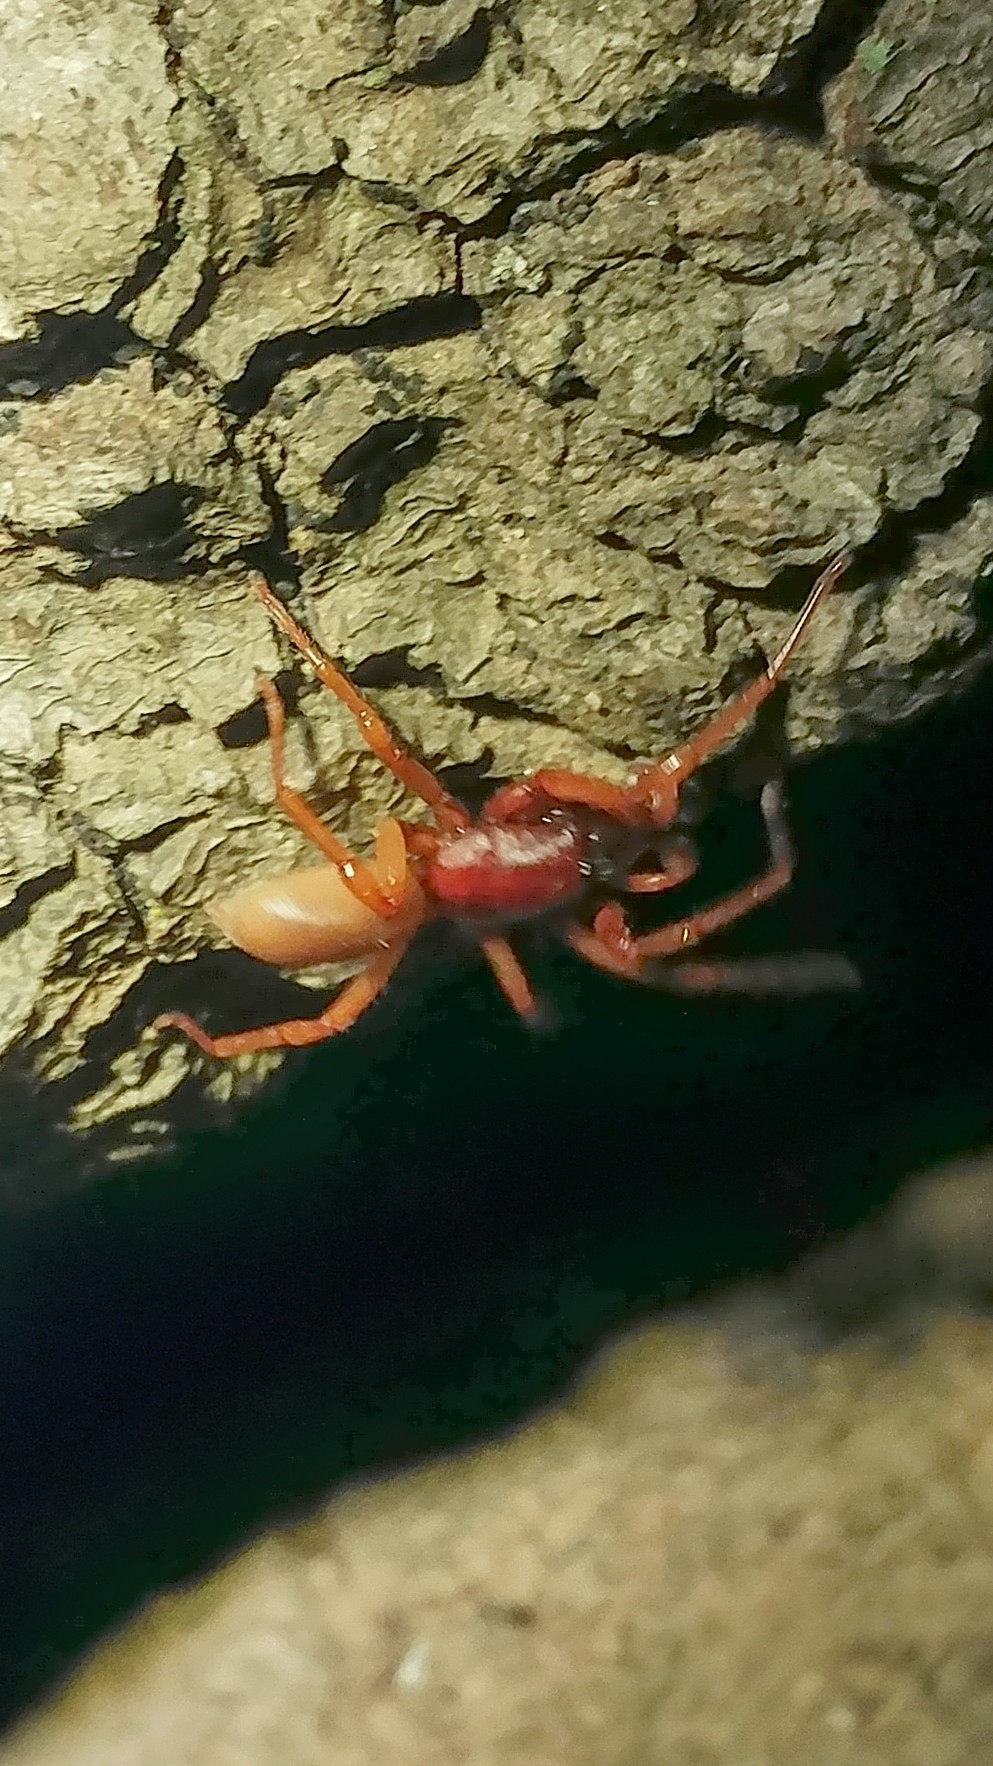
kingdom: Animalia
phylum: Arthropoda
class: Arachnida
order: Araneae
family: Dysderidae
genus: Dysdera
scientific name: Dysdera crocata
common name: Woodlouse spider
